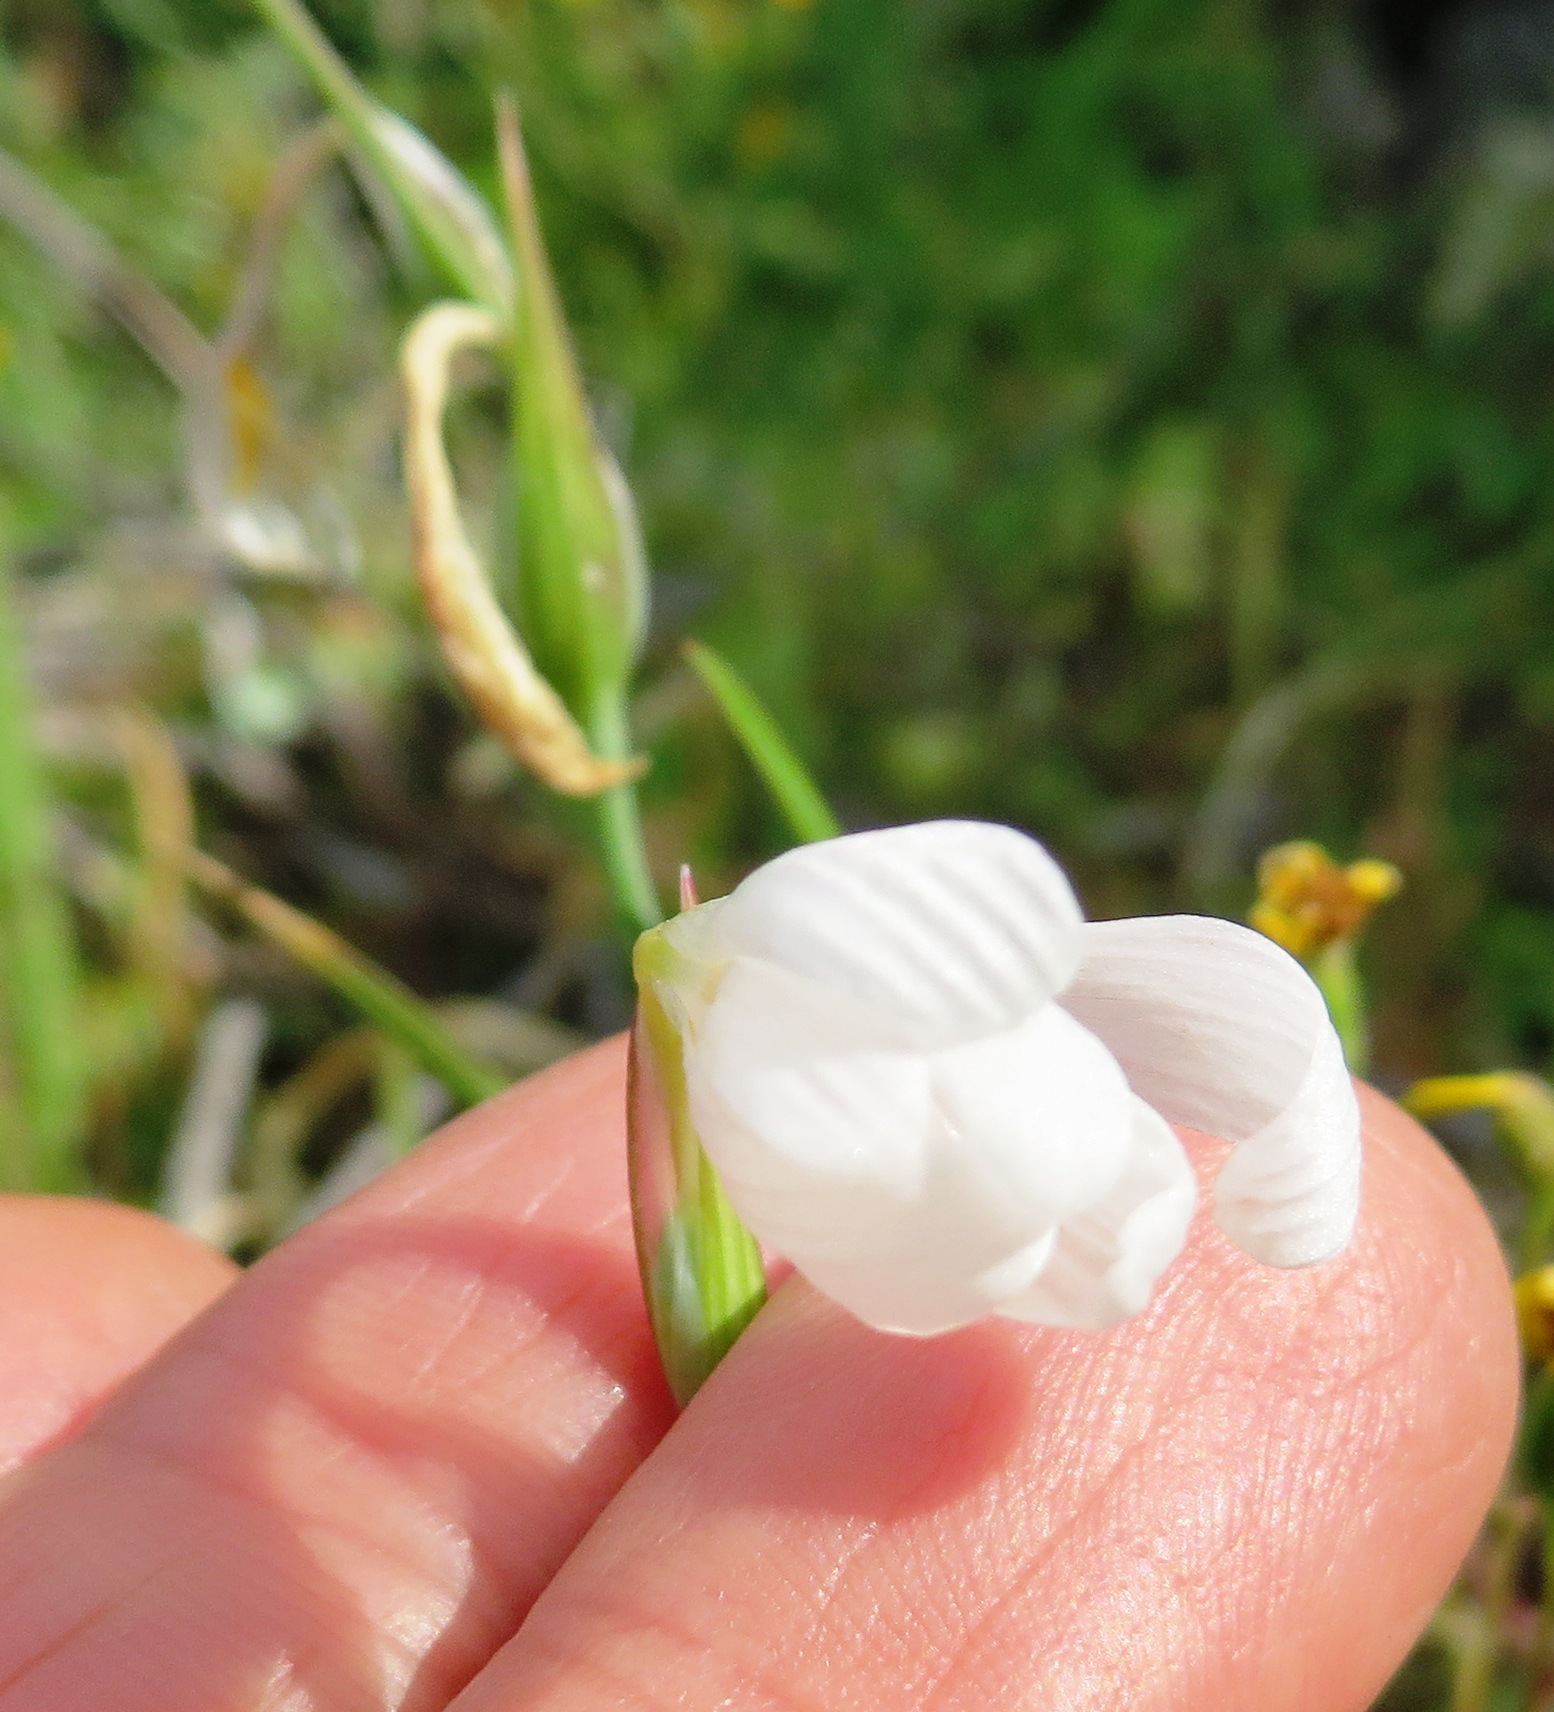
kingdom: Plantae
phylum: Tracheophyta
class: Liliopsida
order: Asparagales
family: Iridaceae
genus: Hesperantha
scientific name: Hesperantha bachmannii
